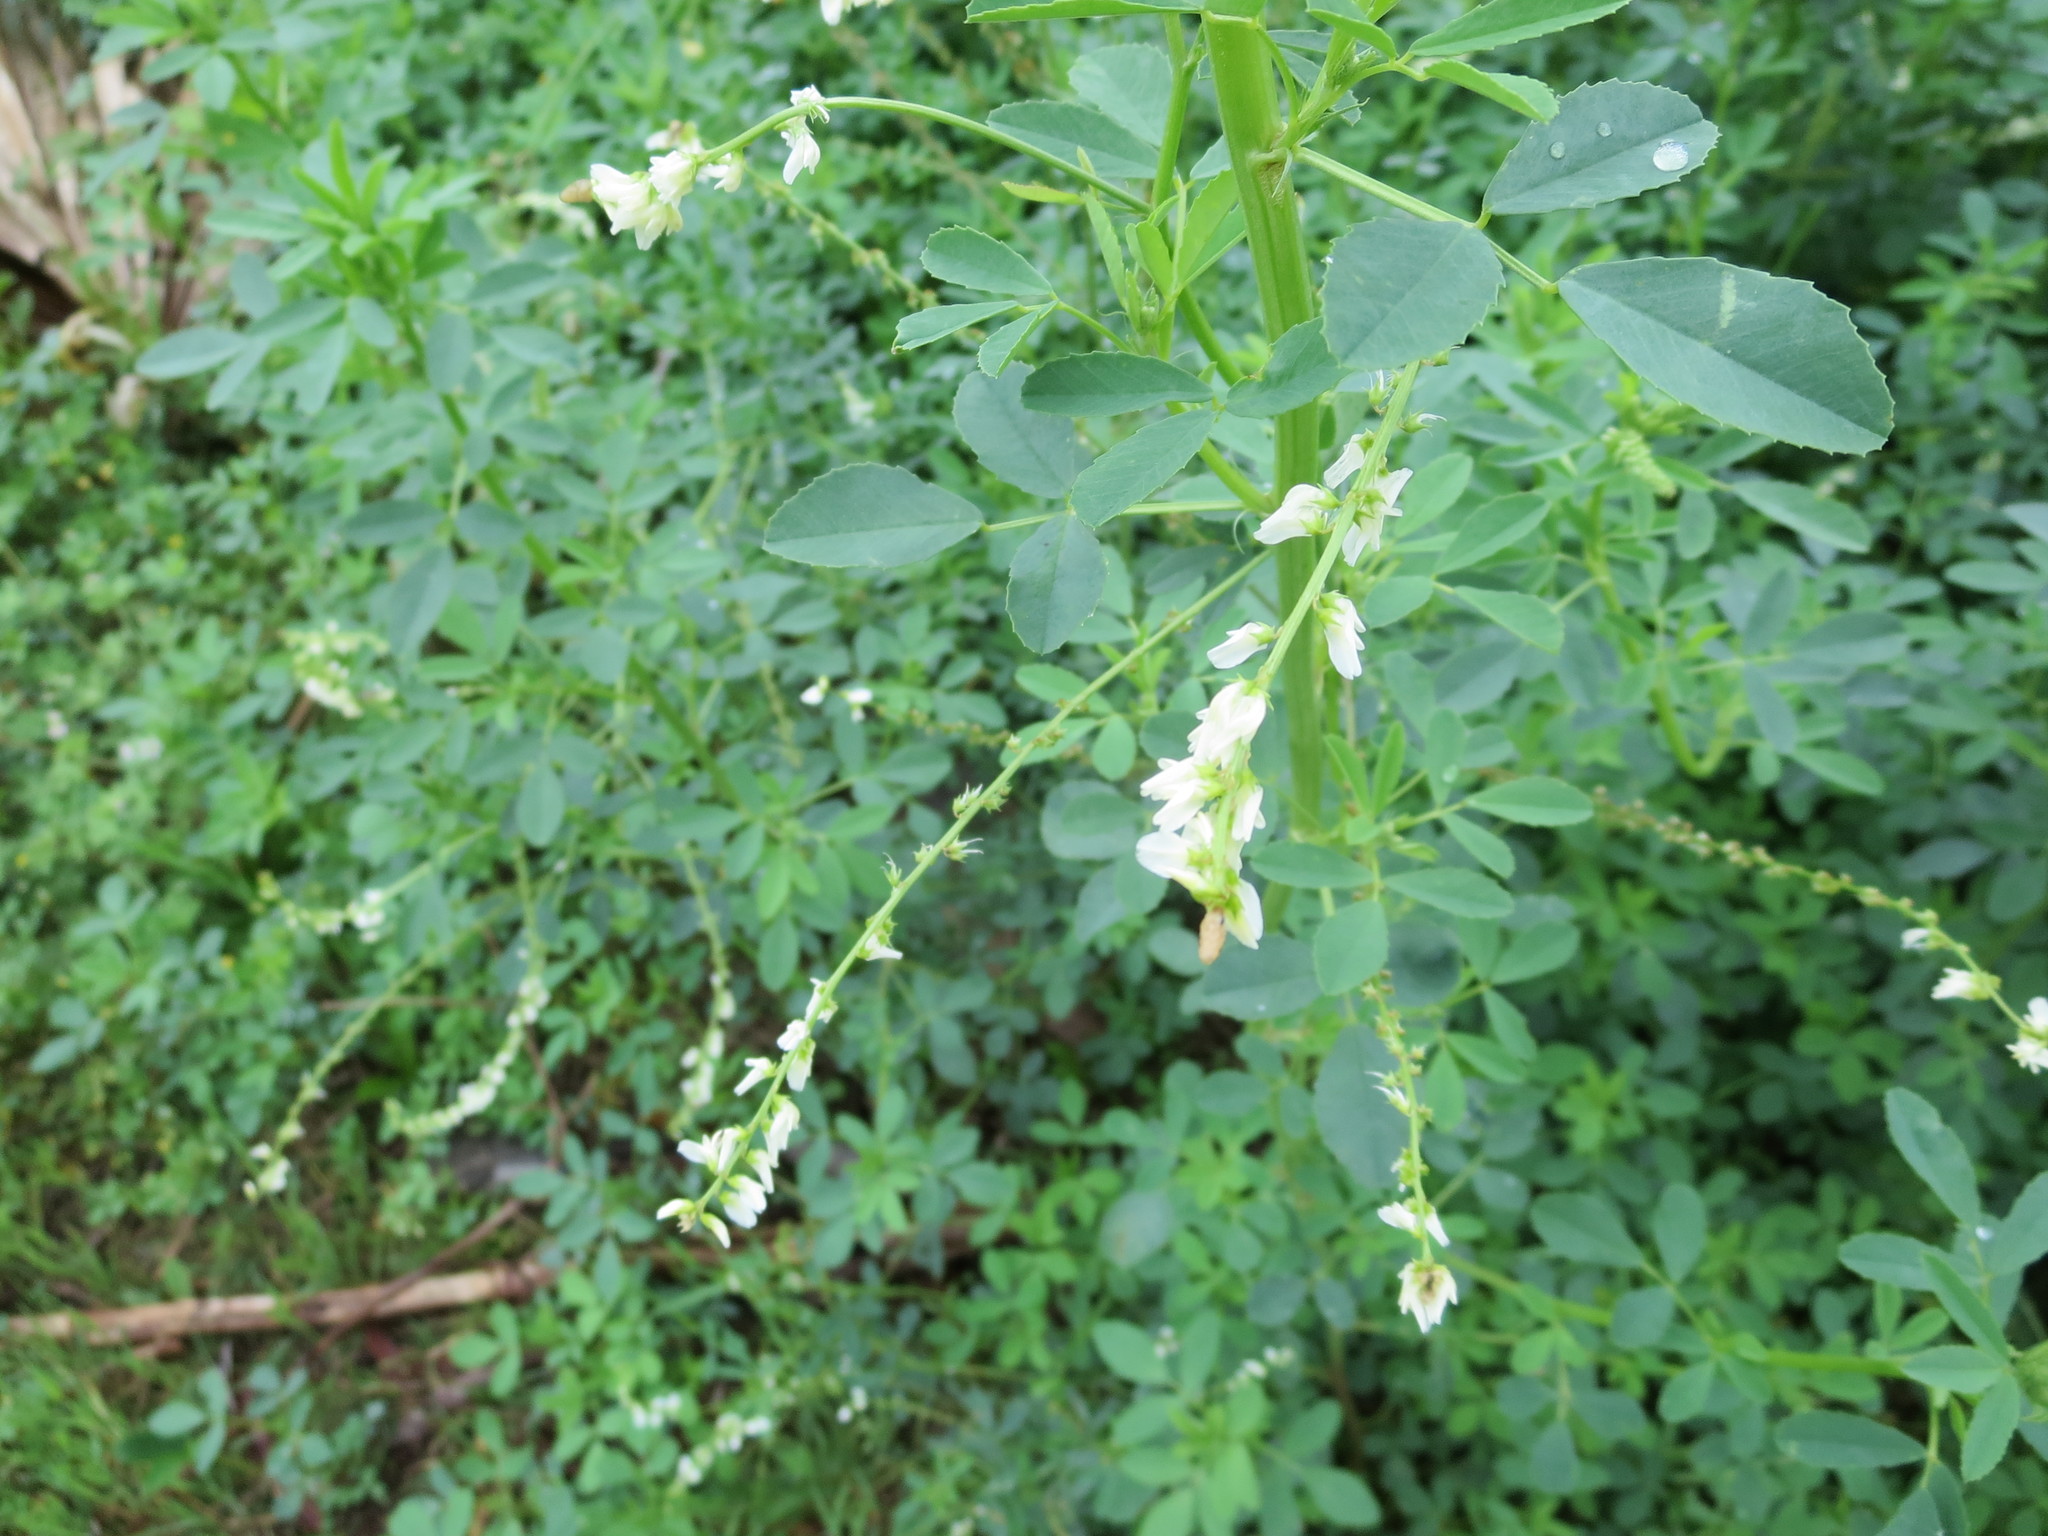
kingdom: Plantae
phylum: Tracheophyta
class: Magnoliopsida
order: Fabales
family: Fabaceae
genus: Melilotus
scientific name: Melilotus albus
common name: White melilot
